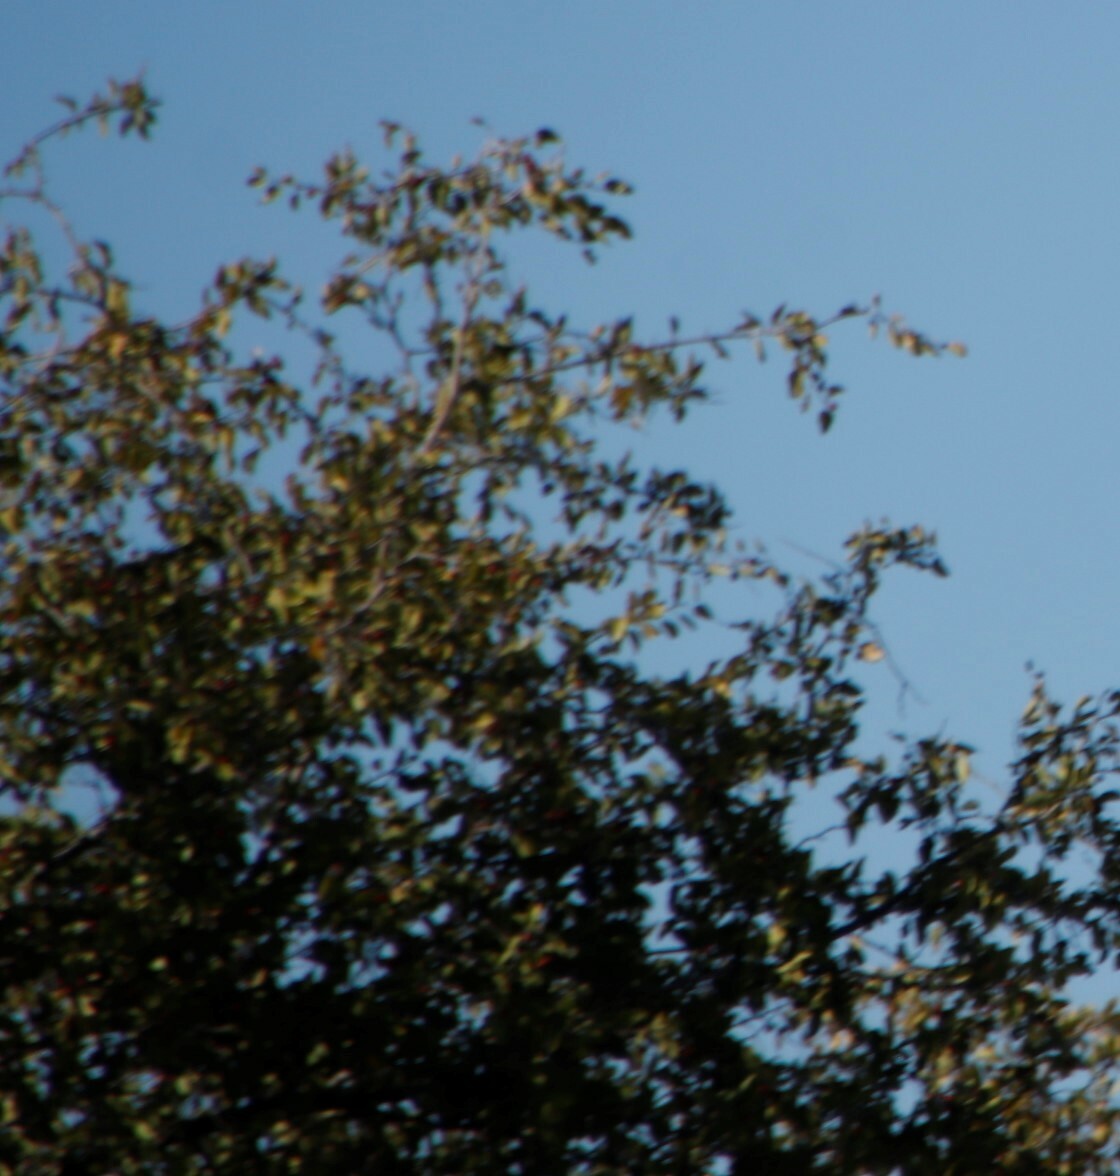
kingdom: Plantae
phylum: Tracheophyta
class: Magnoliopsida
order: Rosales
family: Rhamnaceae
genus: Ziziphus
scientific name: Ziziphus mucronata
